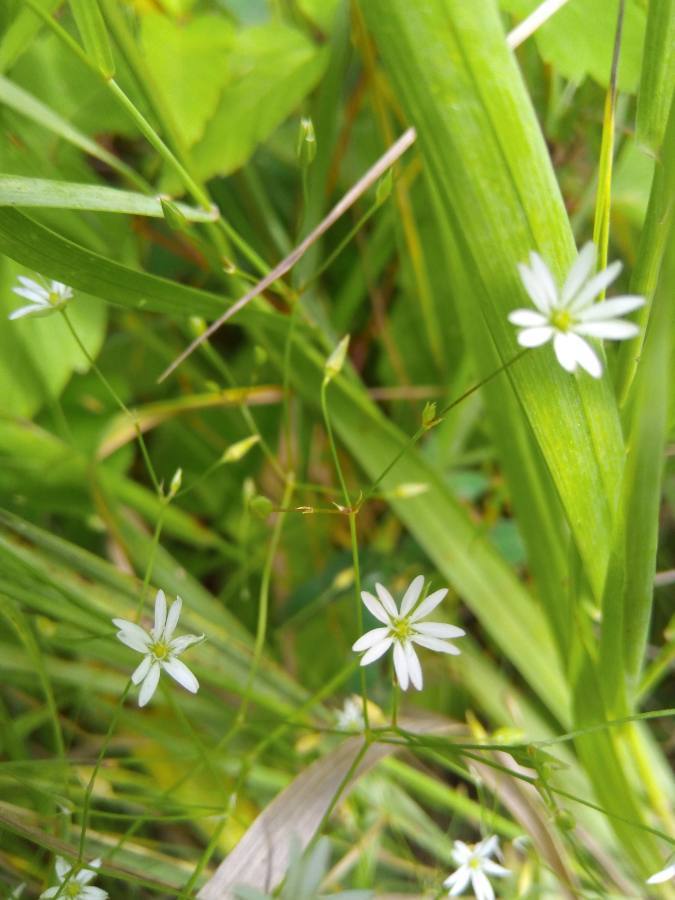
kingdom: Plantae
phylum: Tracheophyta
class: Magnoliopsida
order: Caryophyllales
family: Caryophyllaceae
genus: Stellaria
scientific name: Stellaria graminea
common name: Grass-like starwort
